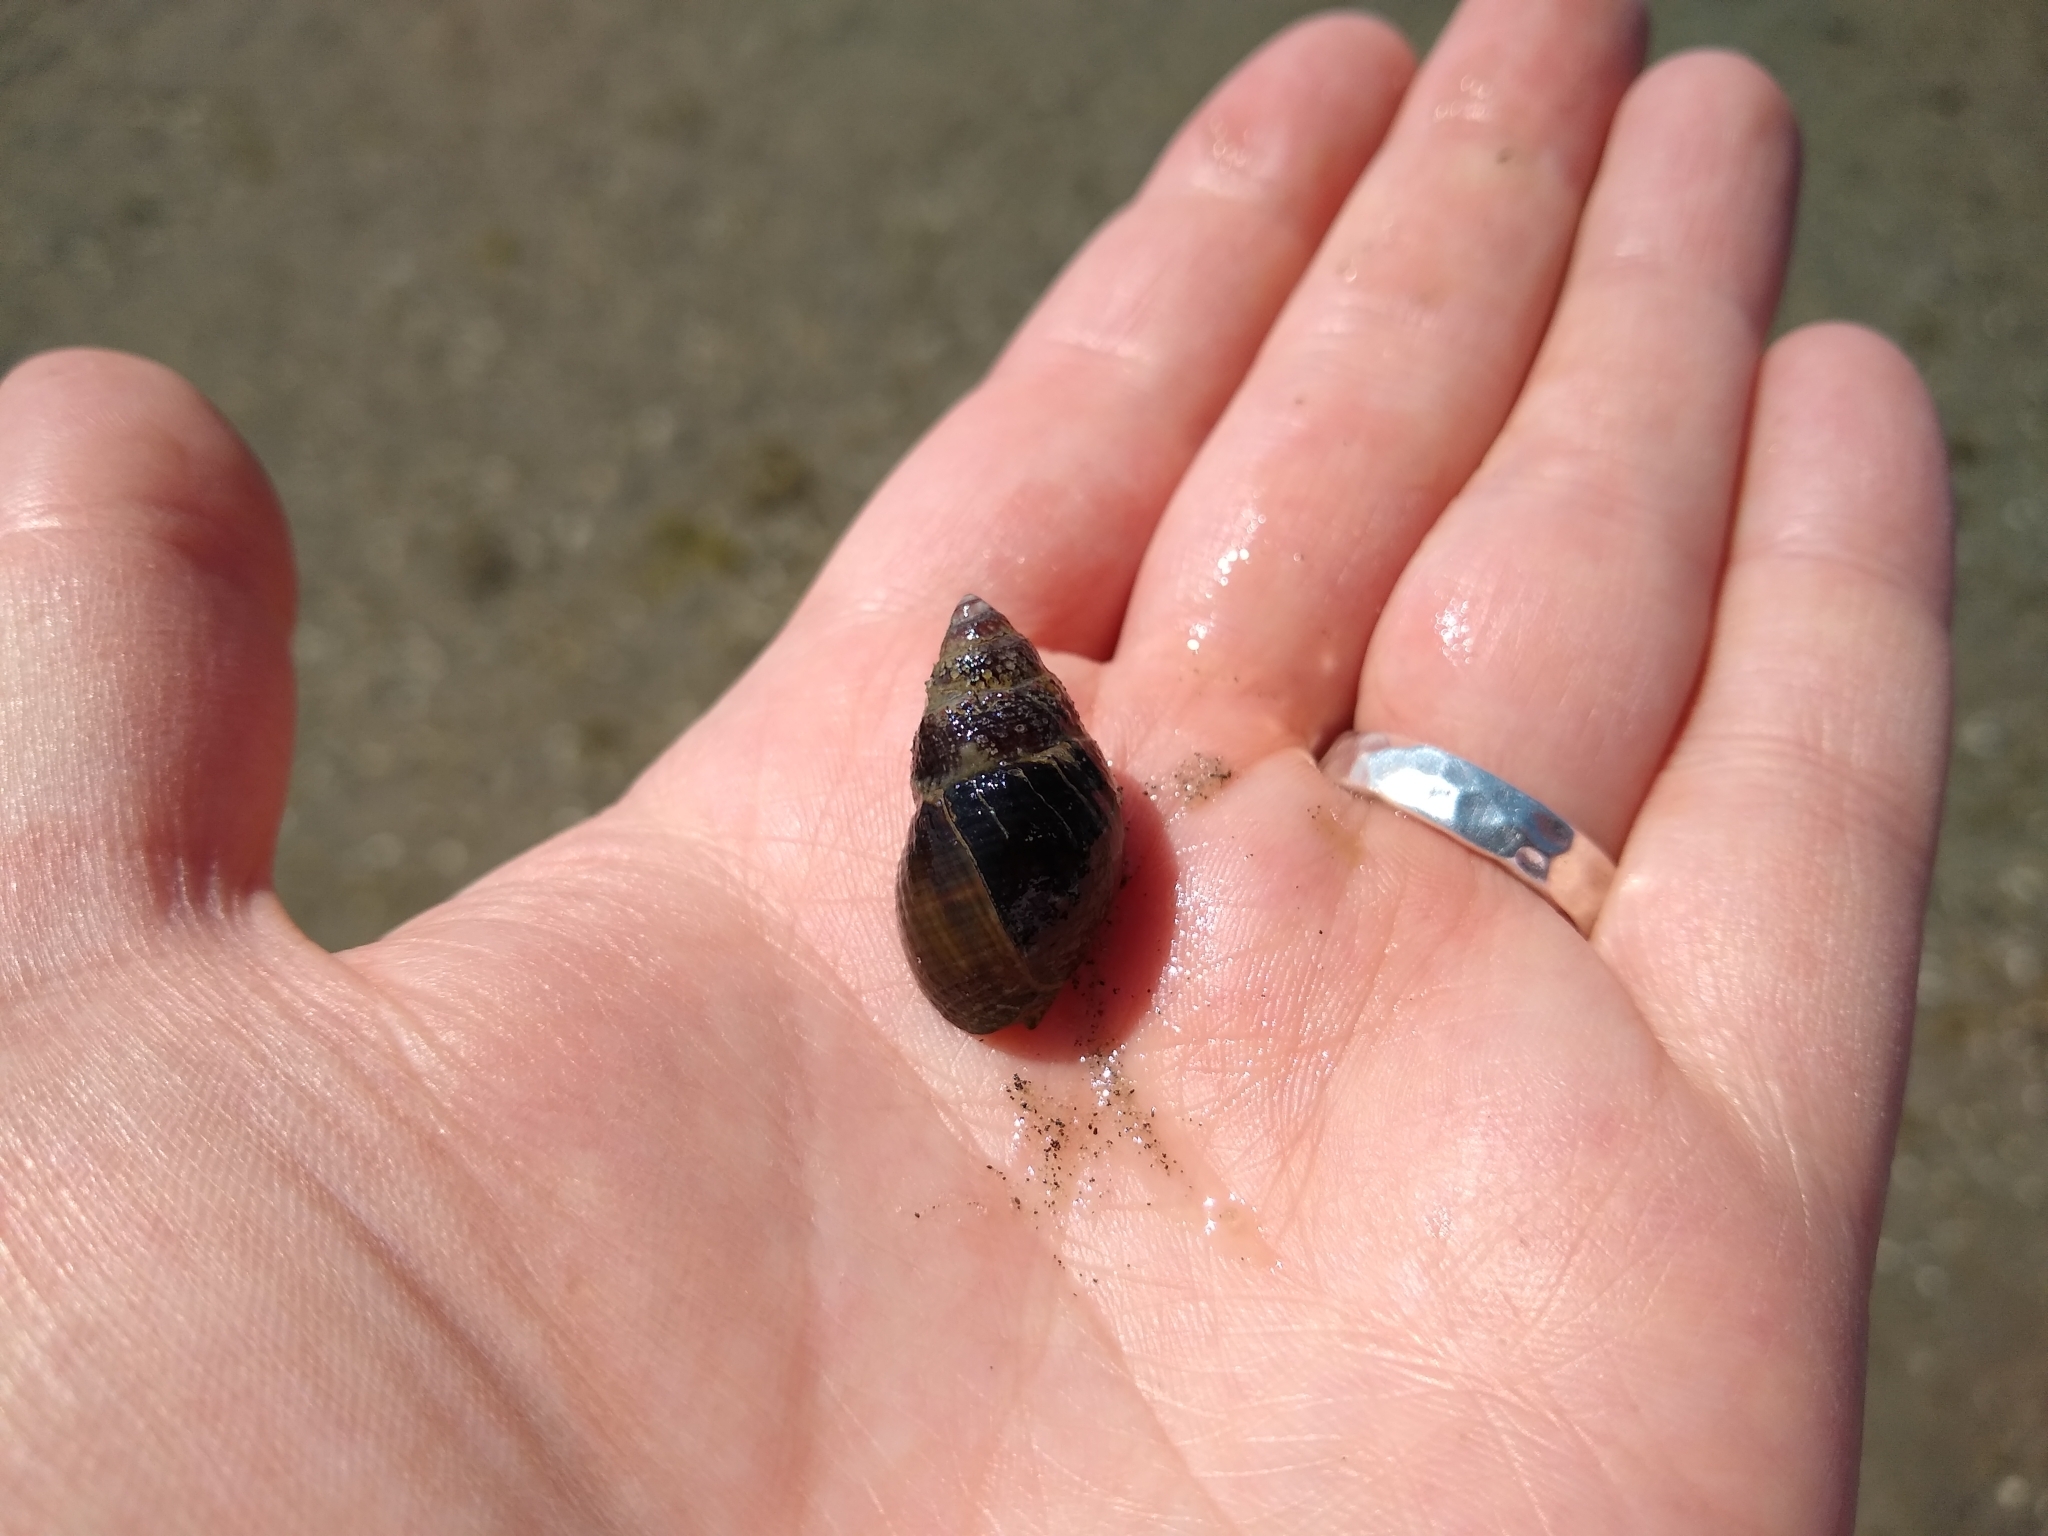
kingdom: Animalia
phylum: Mollusca
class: Gastropoda
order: Neogastropoda
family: Nassariidae
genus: Ilyanassa
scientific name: Ilyanassa obsoleta
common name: Eastern mudsnail
